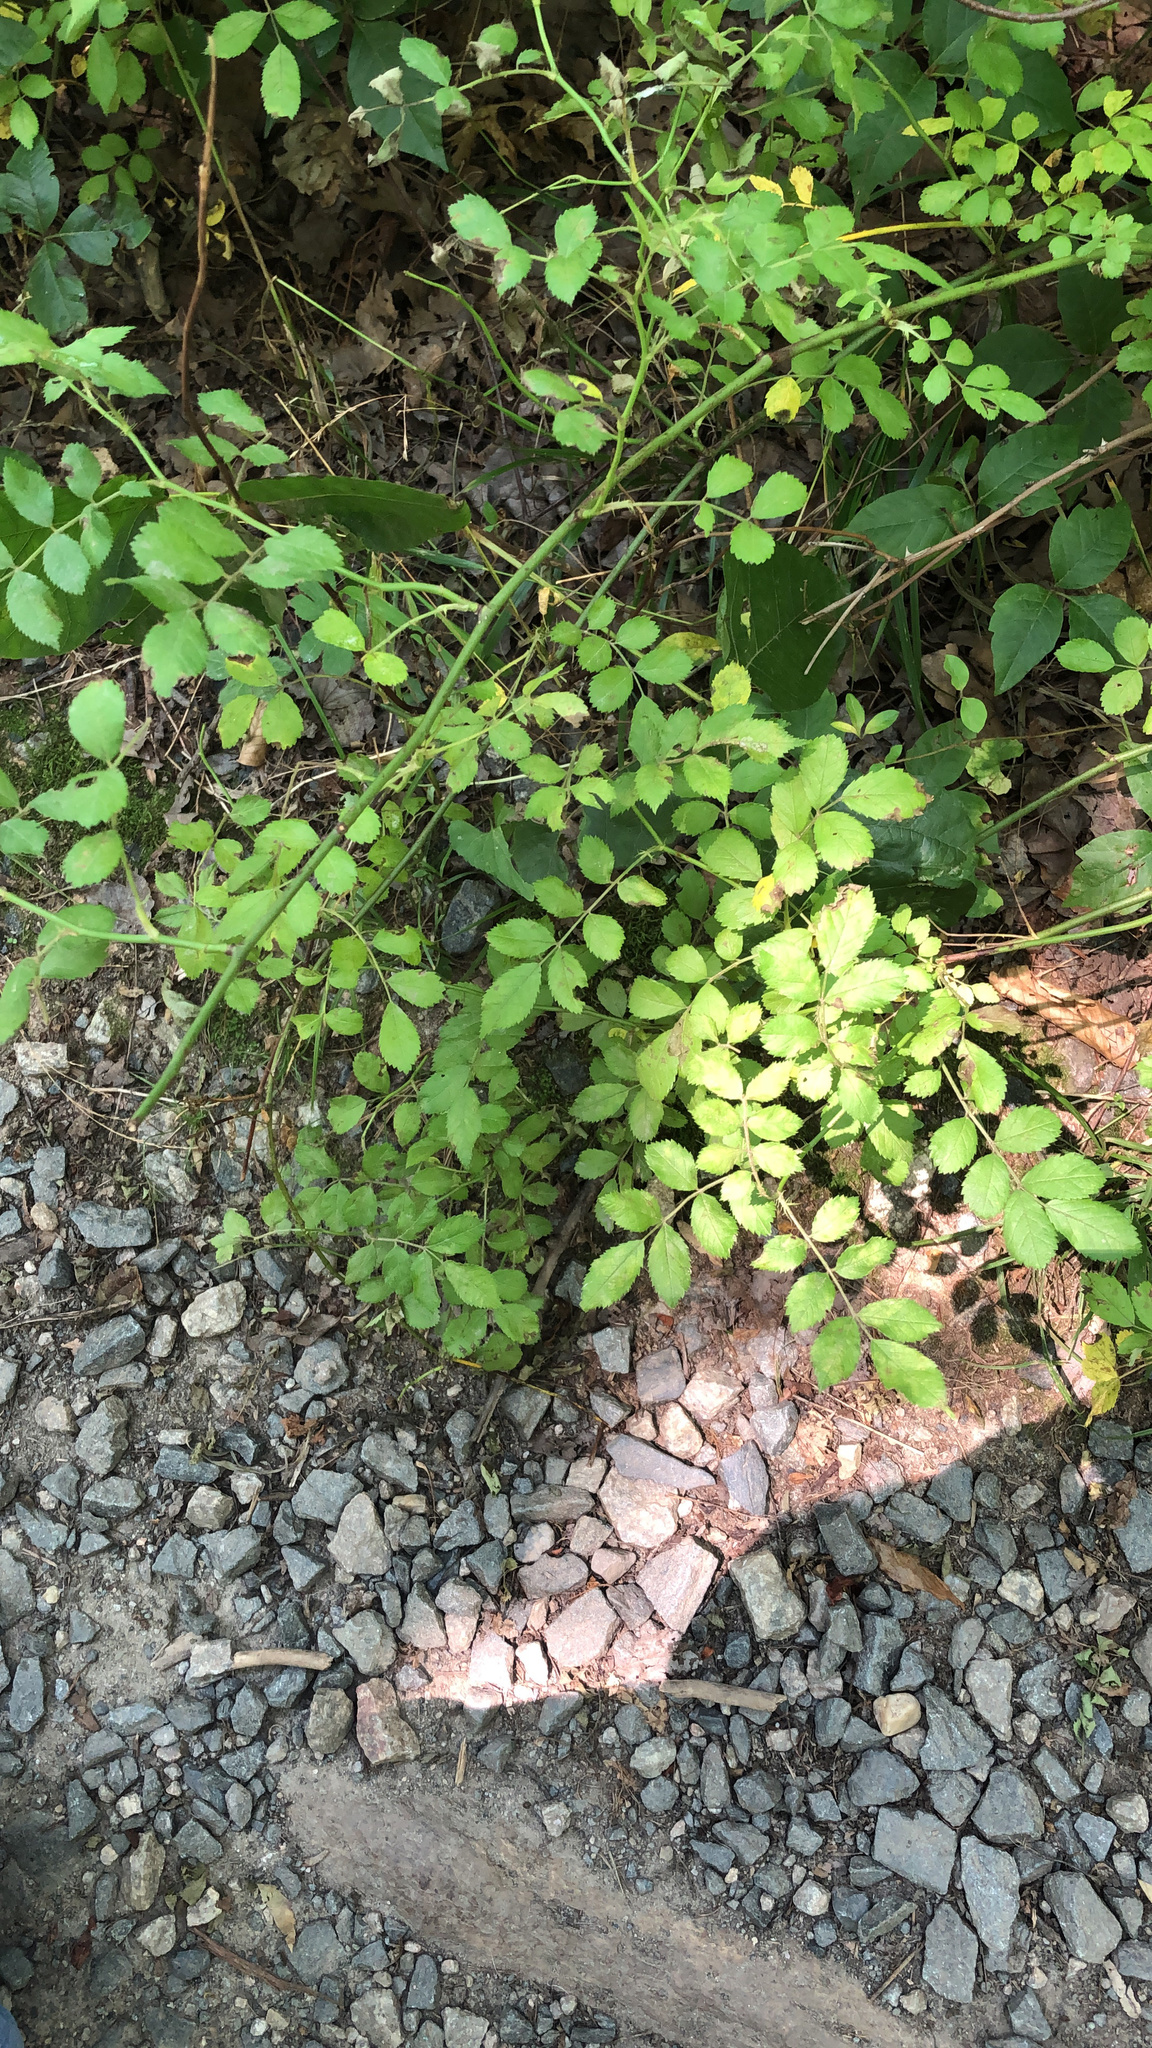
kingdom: Plantae
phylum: Tracheophyta
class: Magnoliopsida
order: Rosales
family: Rosaceae
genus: Rosa
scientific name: Rosa multiflora
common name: Multiflora rose
